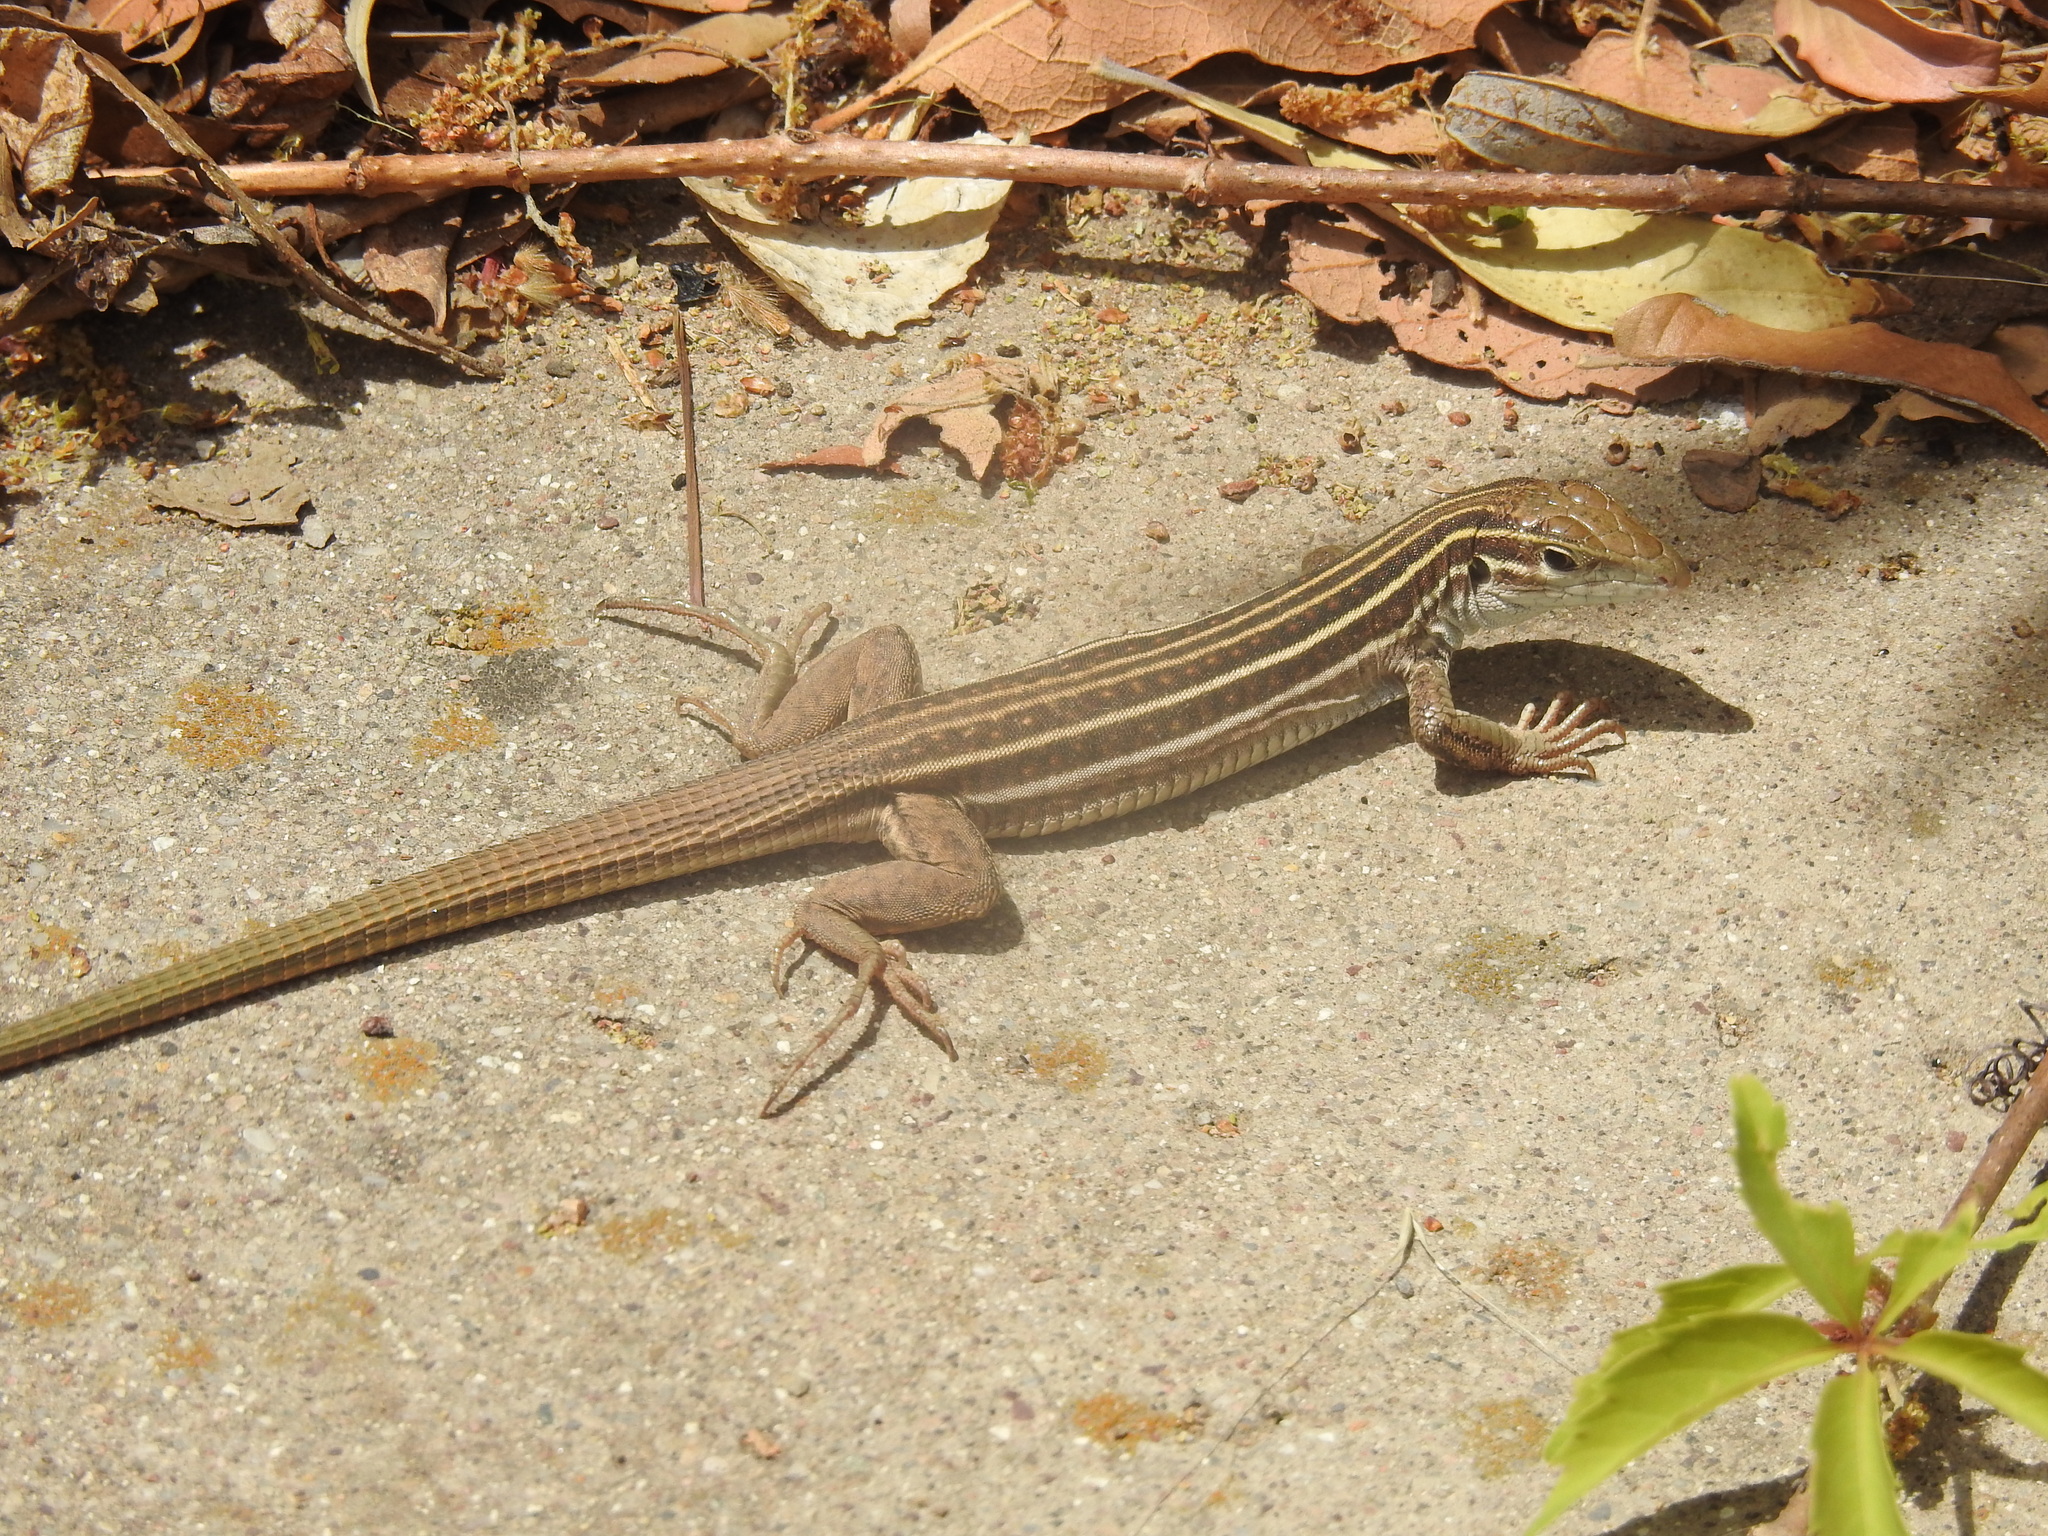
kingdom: Animalia
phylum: Chordata
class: Squamata
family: Teiidae
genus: Aspidoscelis
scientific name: Aspidoscelis sonorae
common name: Sonoran spotted whiptail
